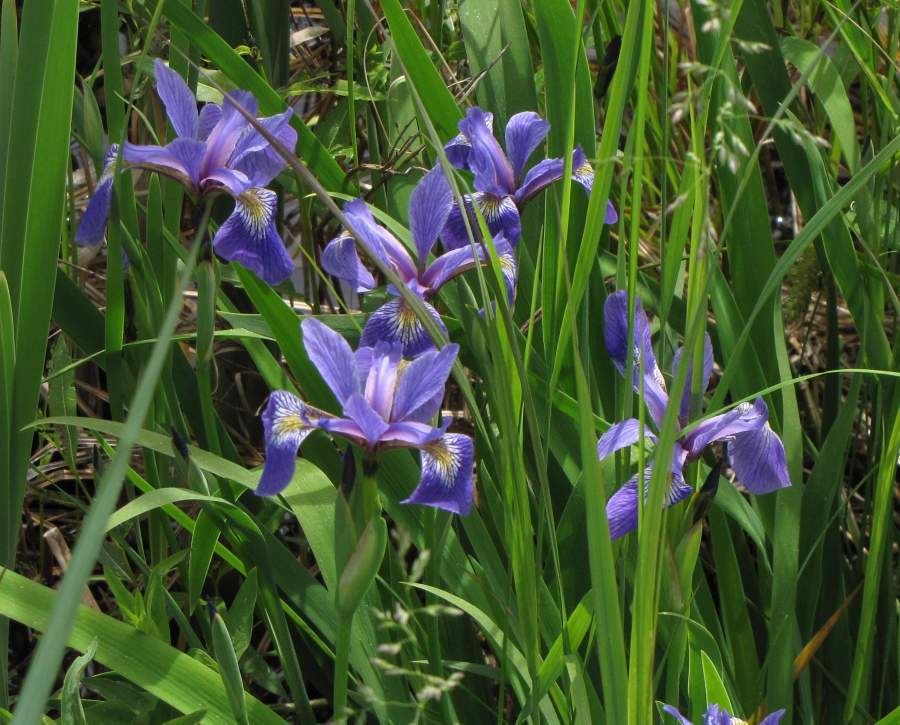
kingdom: Plantae
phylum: Tracheophyta
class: Liliopsida
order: Asparagales
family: Iridaceae
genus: Iris
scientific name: Iris versicolor
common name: Purple iris
